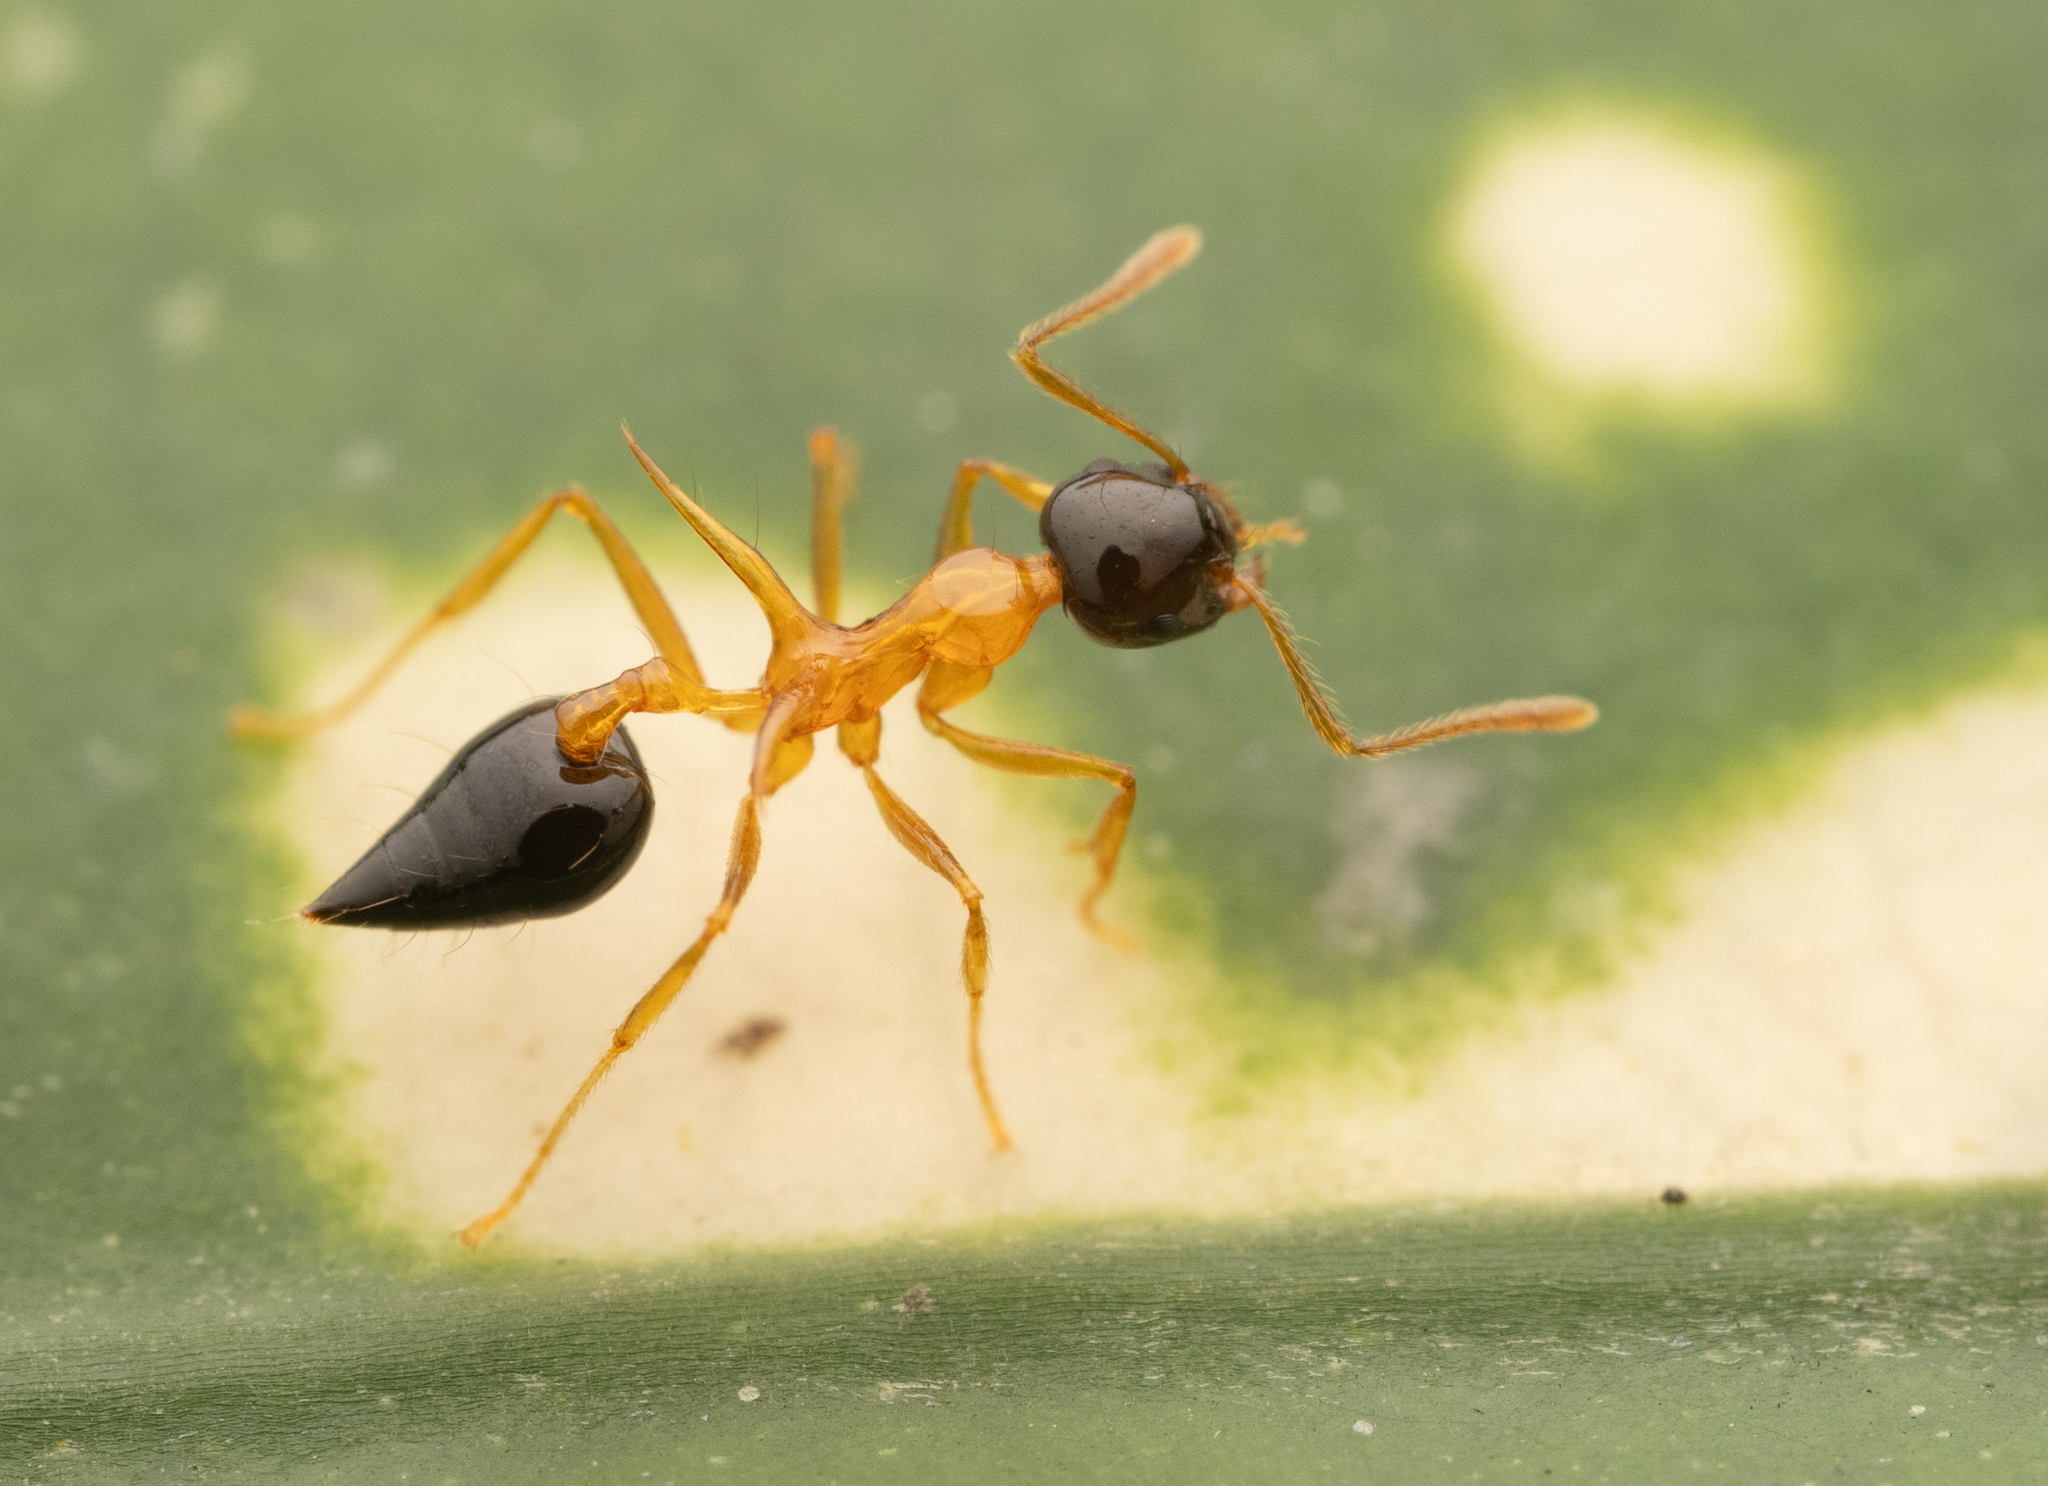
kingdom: Animalia
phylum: Arthropoda
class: Insecta
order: Hymenoptera
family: Formicidae
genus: Crematogaster
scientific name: Crematogaster paradoxa
